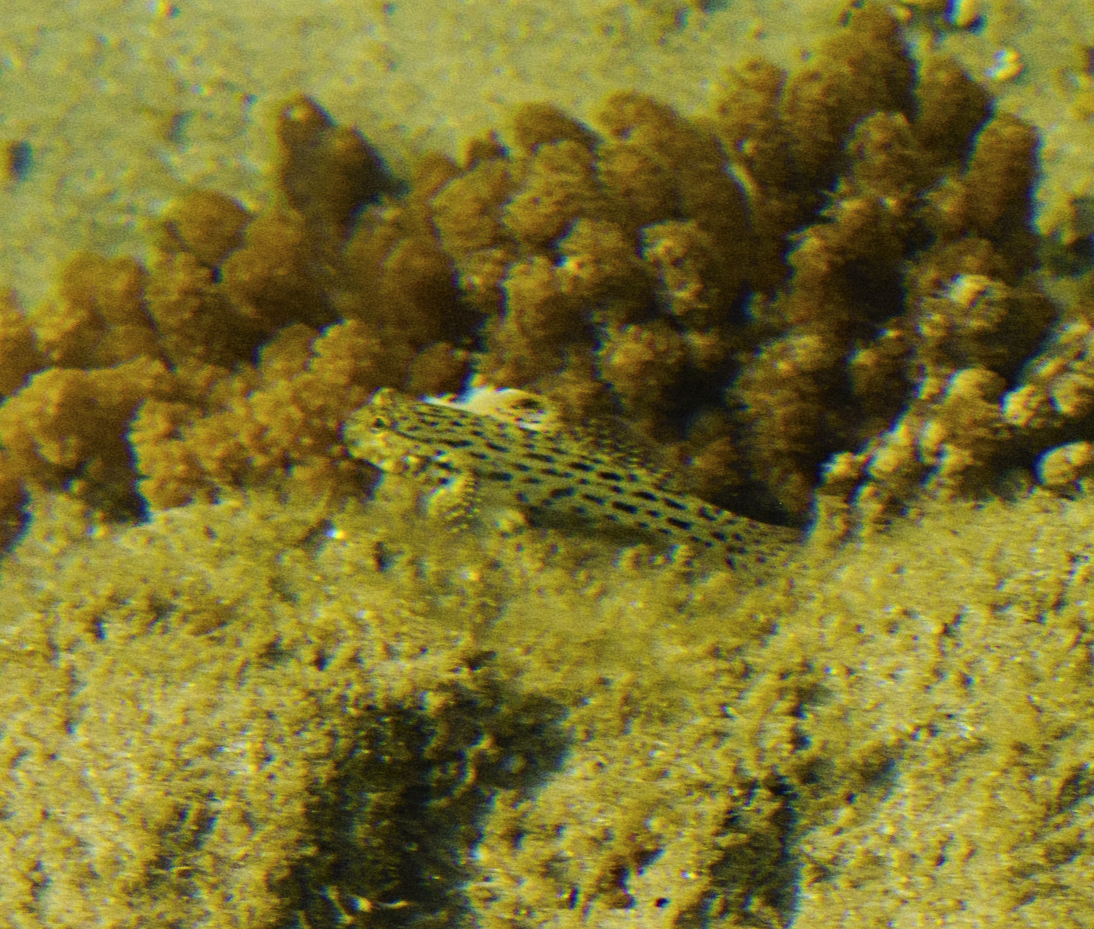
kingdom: Animalia
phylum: Chordata
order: Perciformes
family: Gobiidae
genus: Istigobius
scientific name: Istigobius ornatus
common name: Ornate goby
